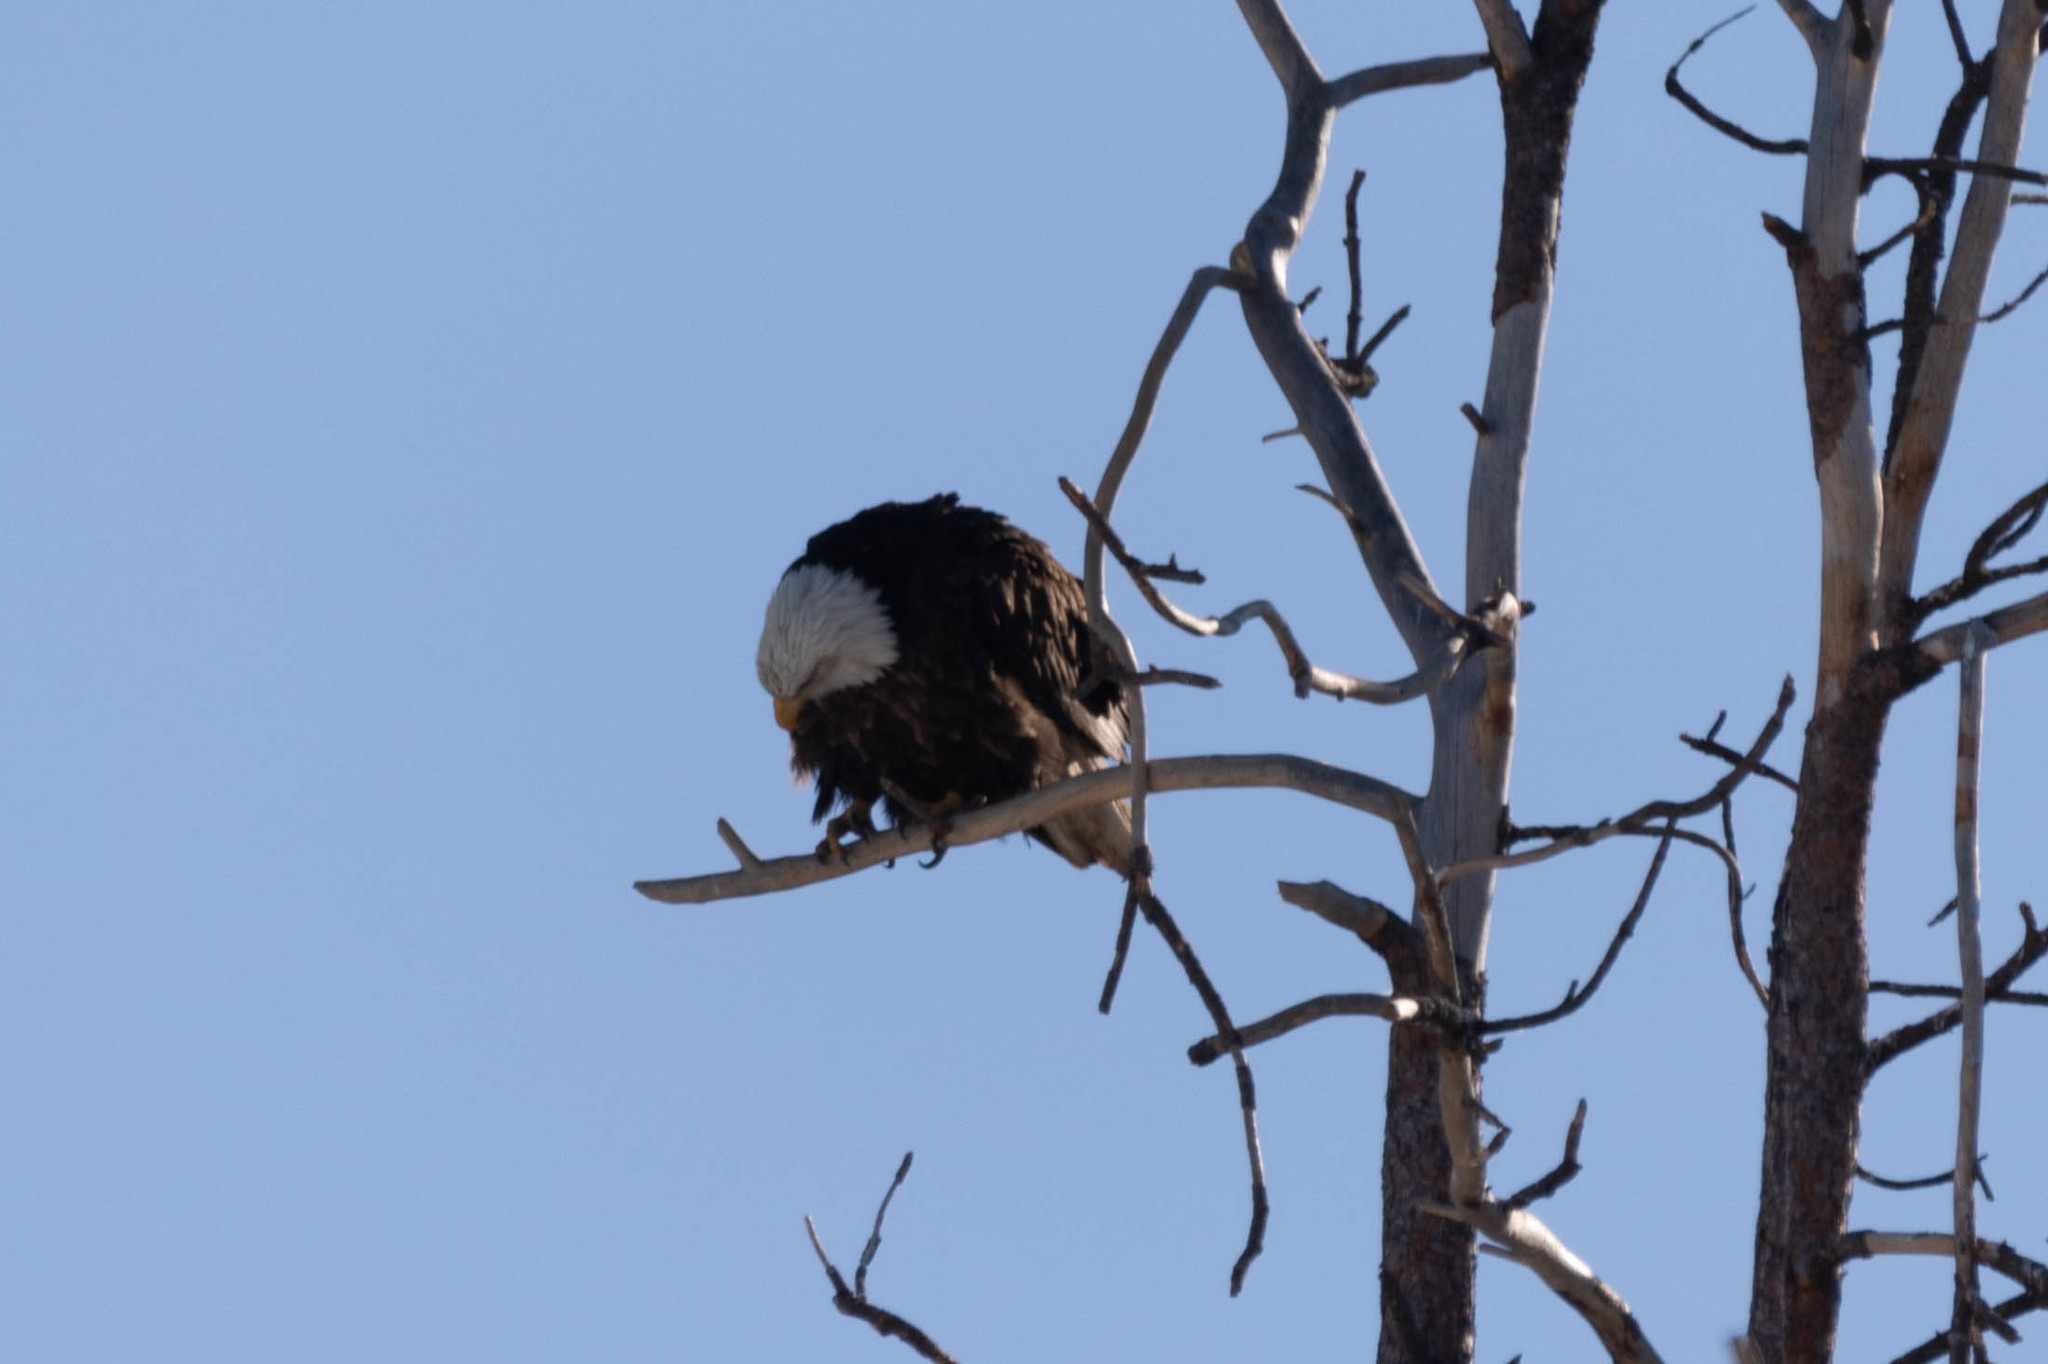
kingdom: Animalia
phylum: Chordata
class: Aves
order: Accipitriformes
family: Accipitridae
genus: Haliaeetus
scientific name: Haliaeetus leucocephalus
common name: Bald eagle
